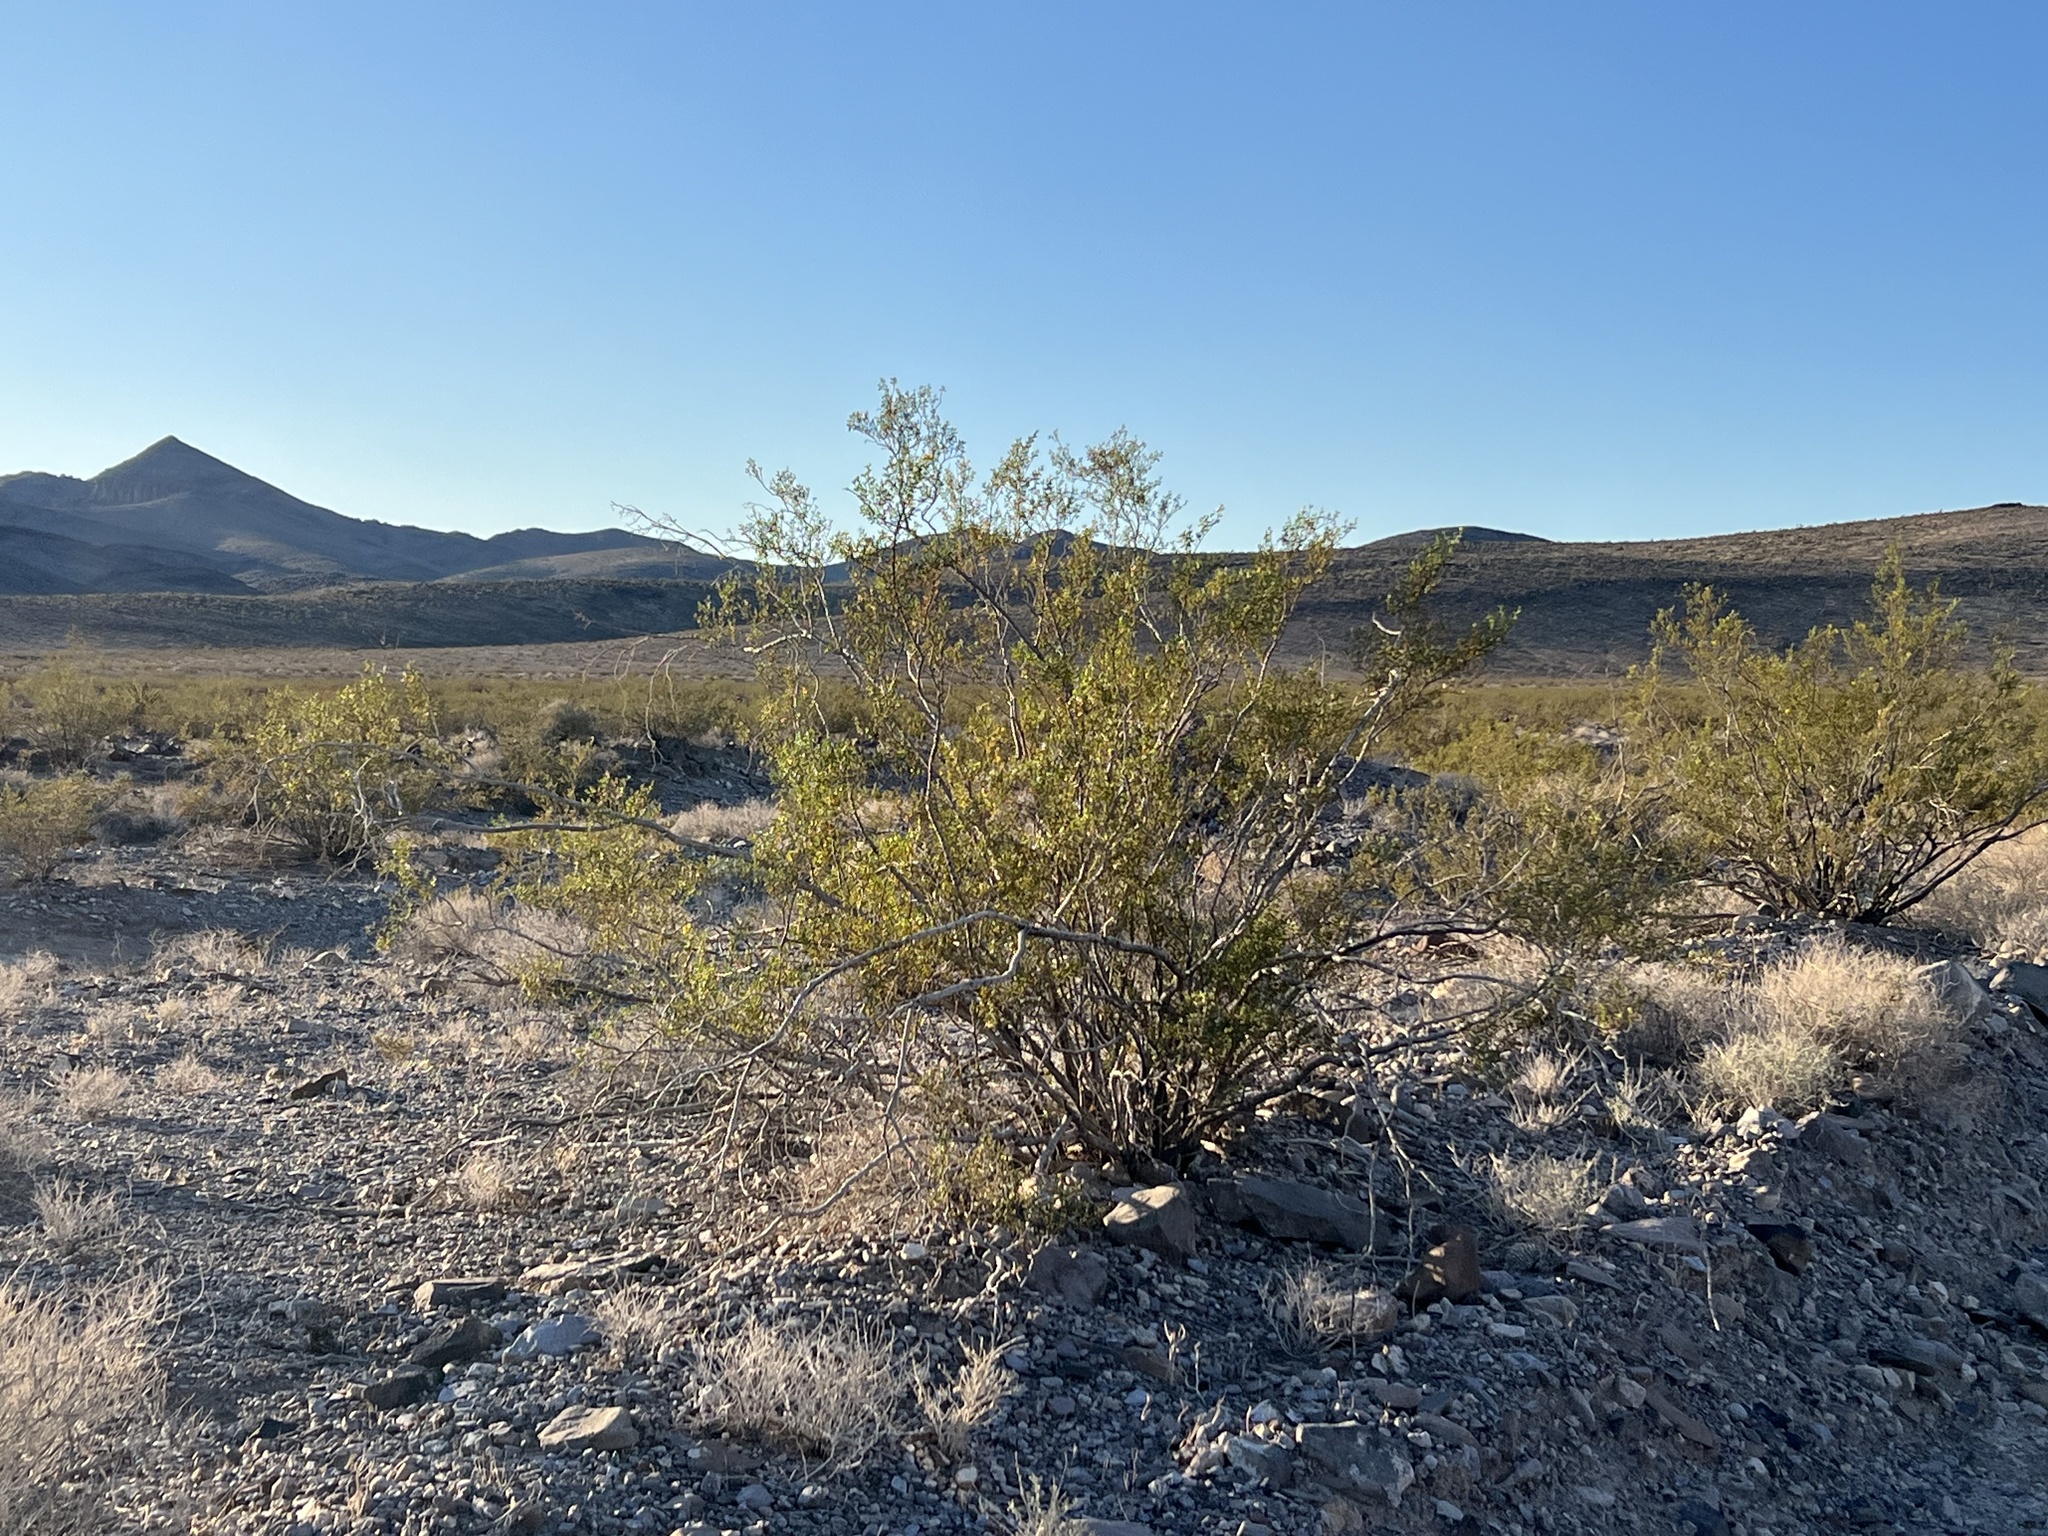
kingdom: Plantae
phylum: Tracheophyta
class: Magnoliopsida
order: Zygophyllales
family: Zygophyllaceae
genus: Larrea
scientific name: Larrea tridentata
